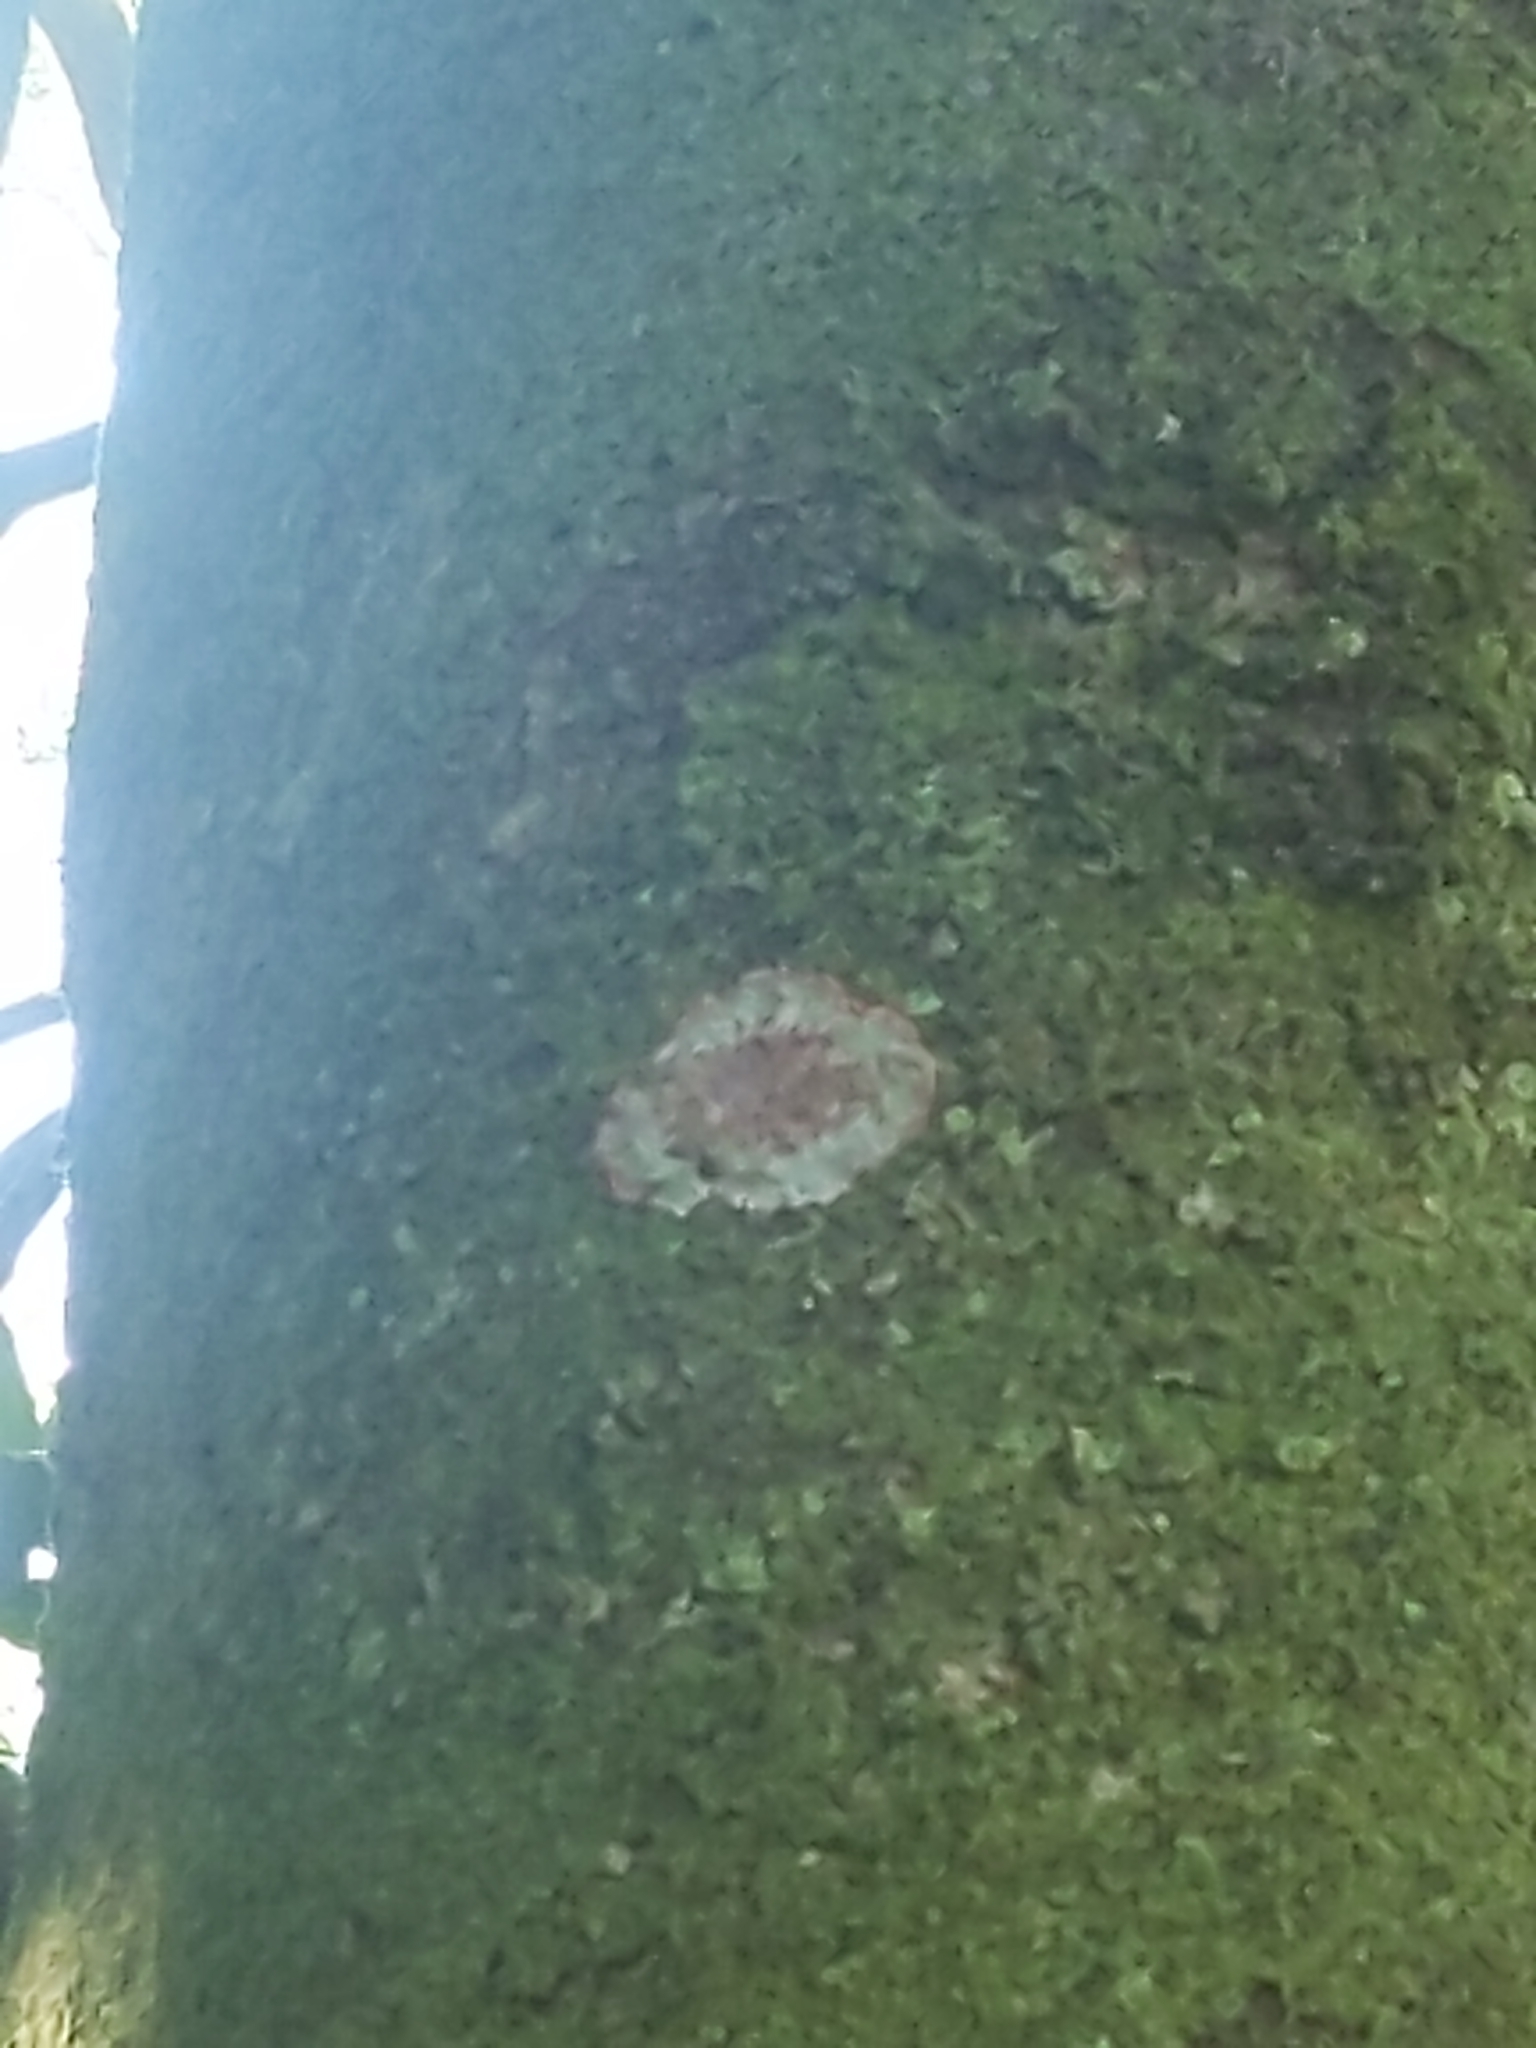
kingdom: Fungi
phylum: Ascomycota
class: Arthoniomycetes
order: Arthoniales
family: Arthoniaceae
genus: Herpothallon
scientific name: Herpothallon rubrocinctum
